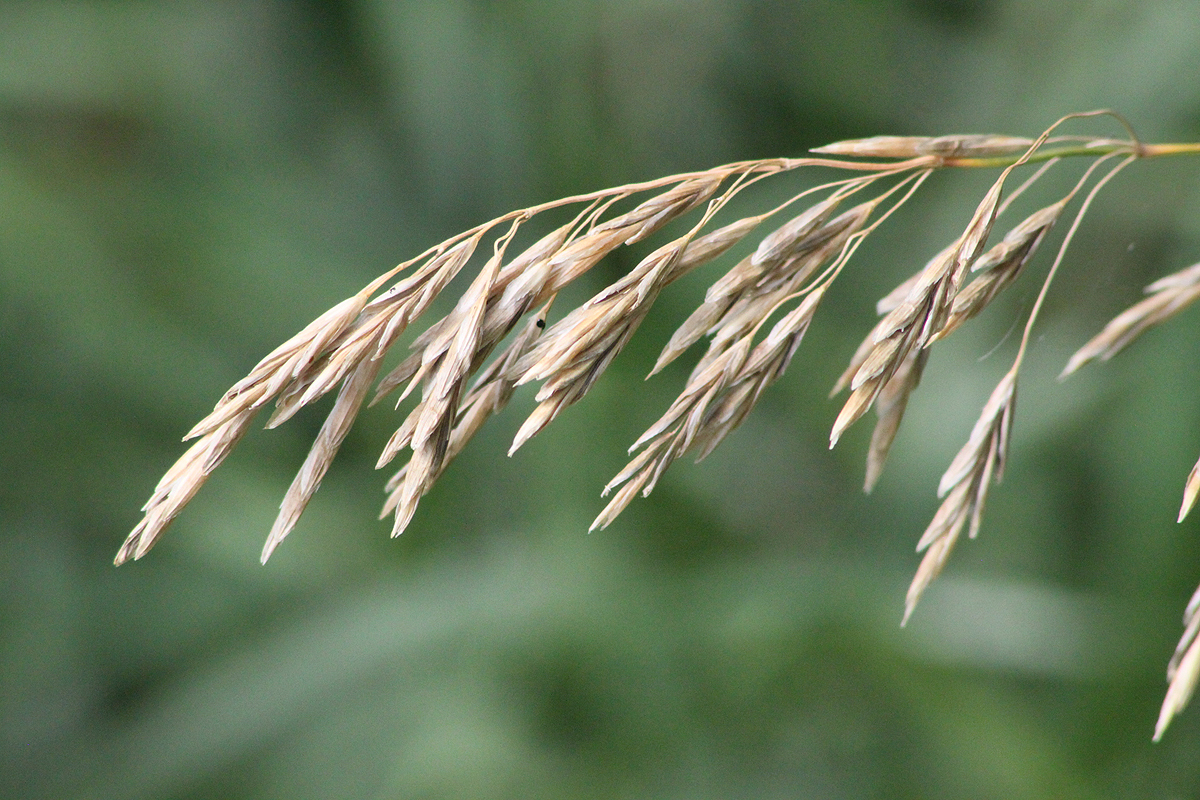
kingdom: Plantae
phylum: Tracheophyta
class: Liliopsida
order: Poales
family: Poaceae
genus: Bromus
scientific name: Bromus inermis
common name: Smooth brome
